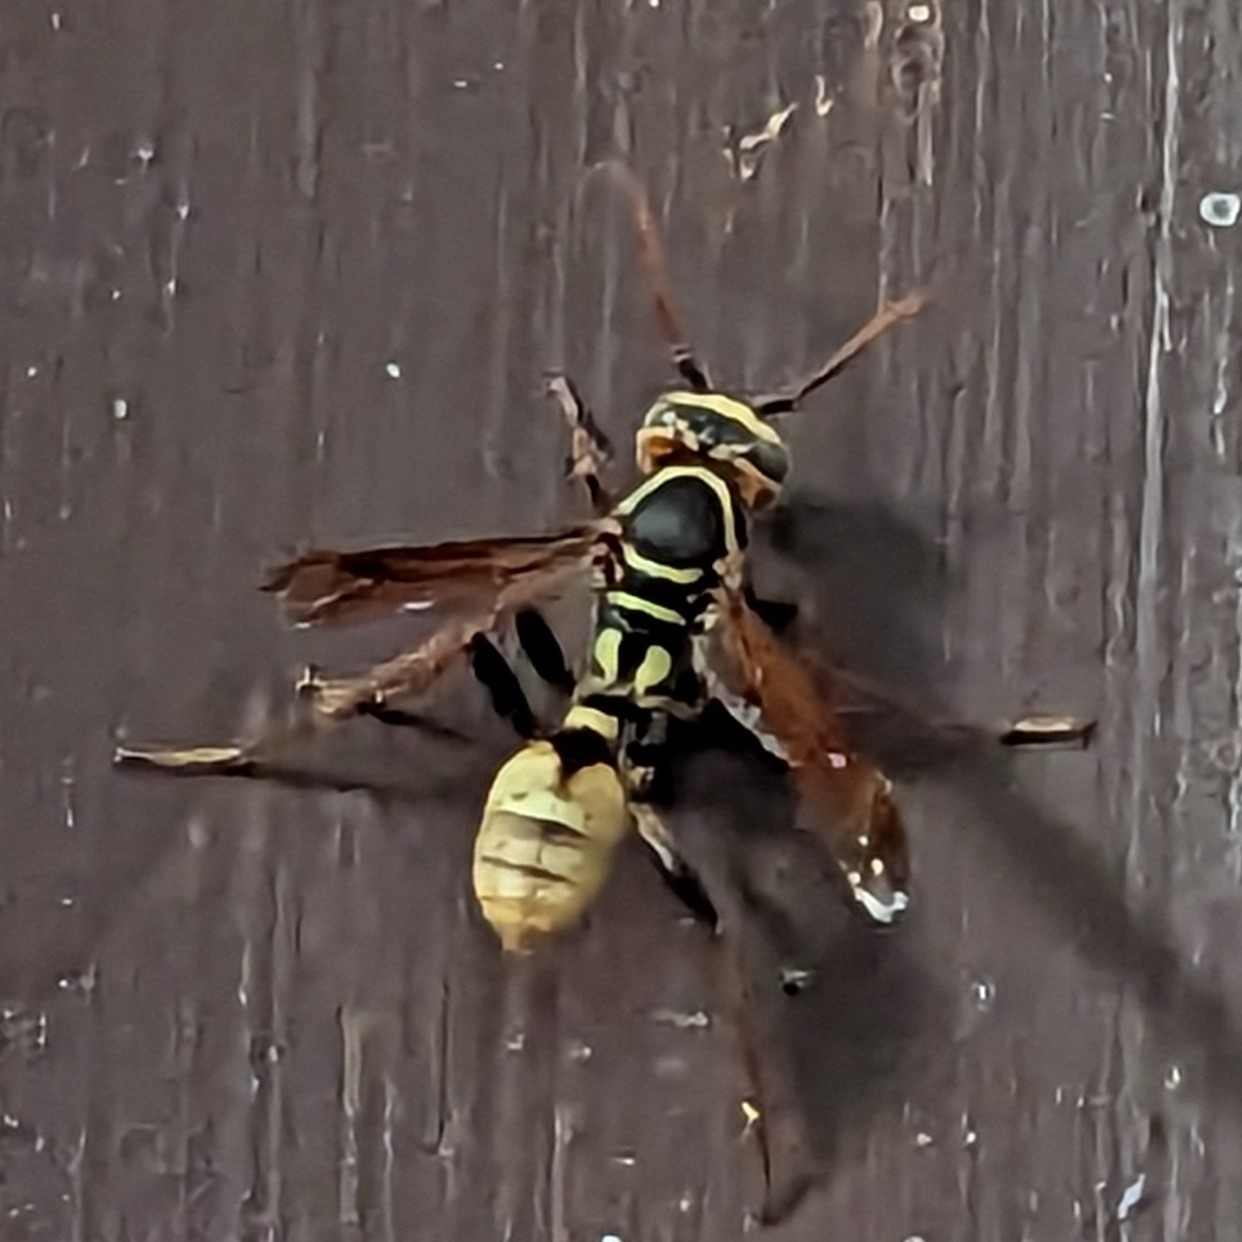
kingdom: Animalia
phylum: Arthropoda
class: Insecta
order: Hymenoptera
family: Vespidae
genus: Mischocyttarus
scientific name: Mischocyttarus flavitarsis
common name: Wasp
